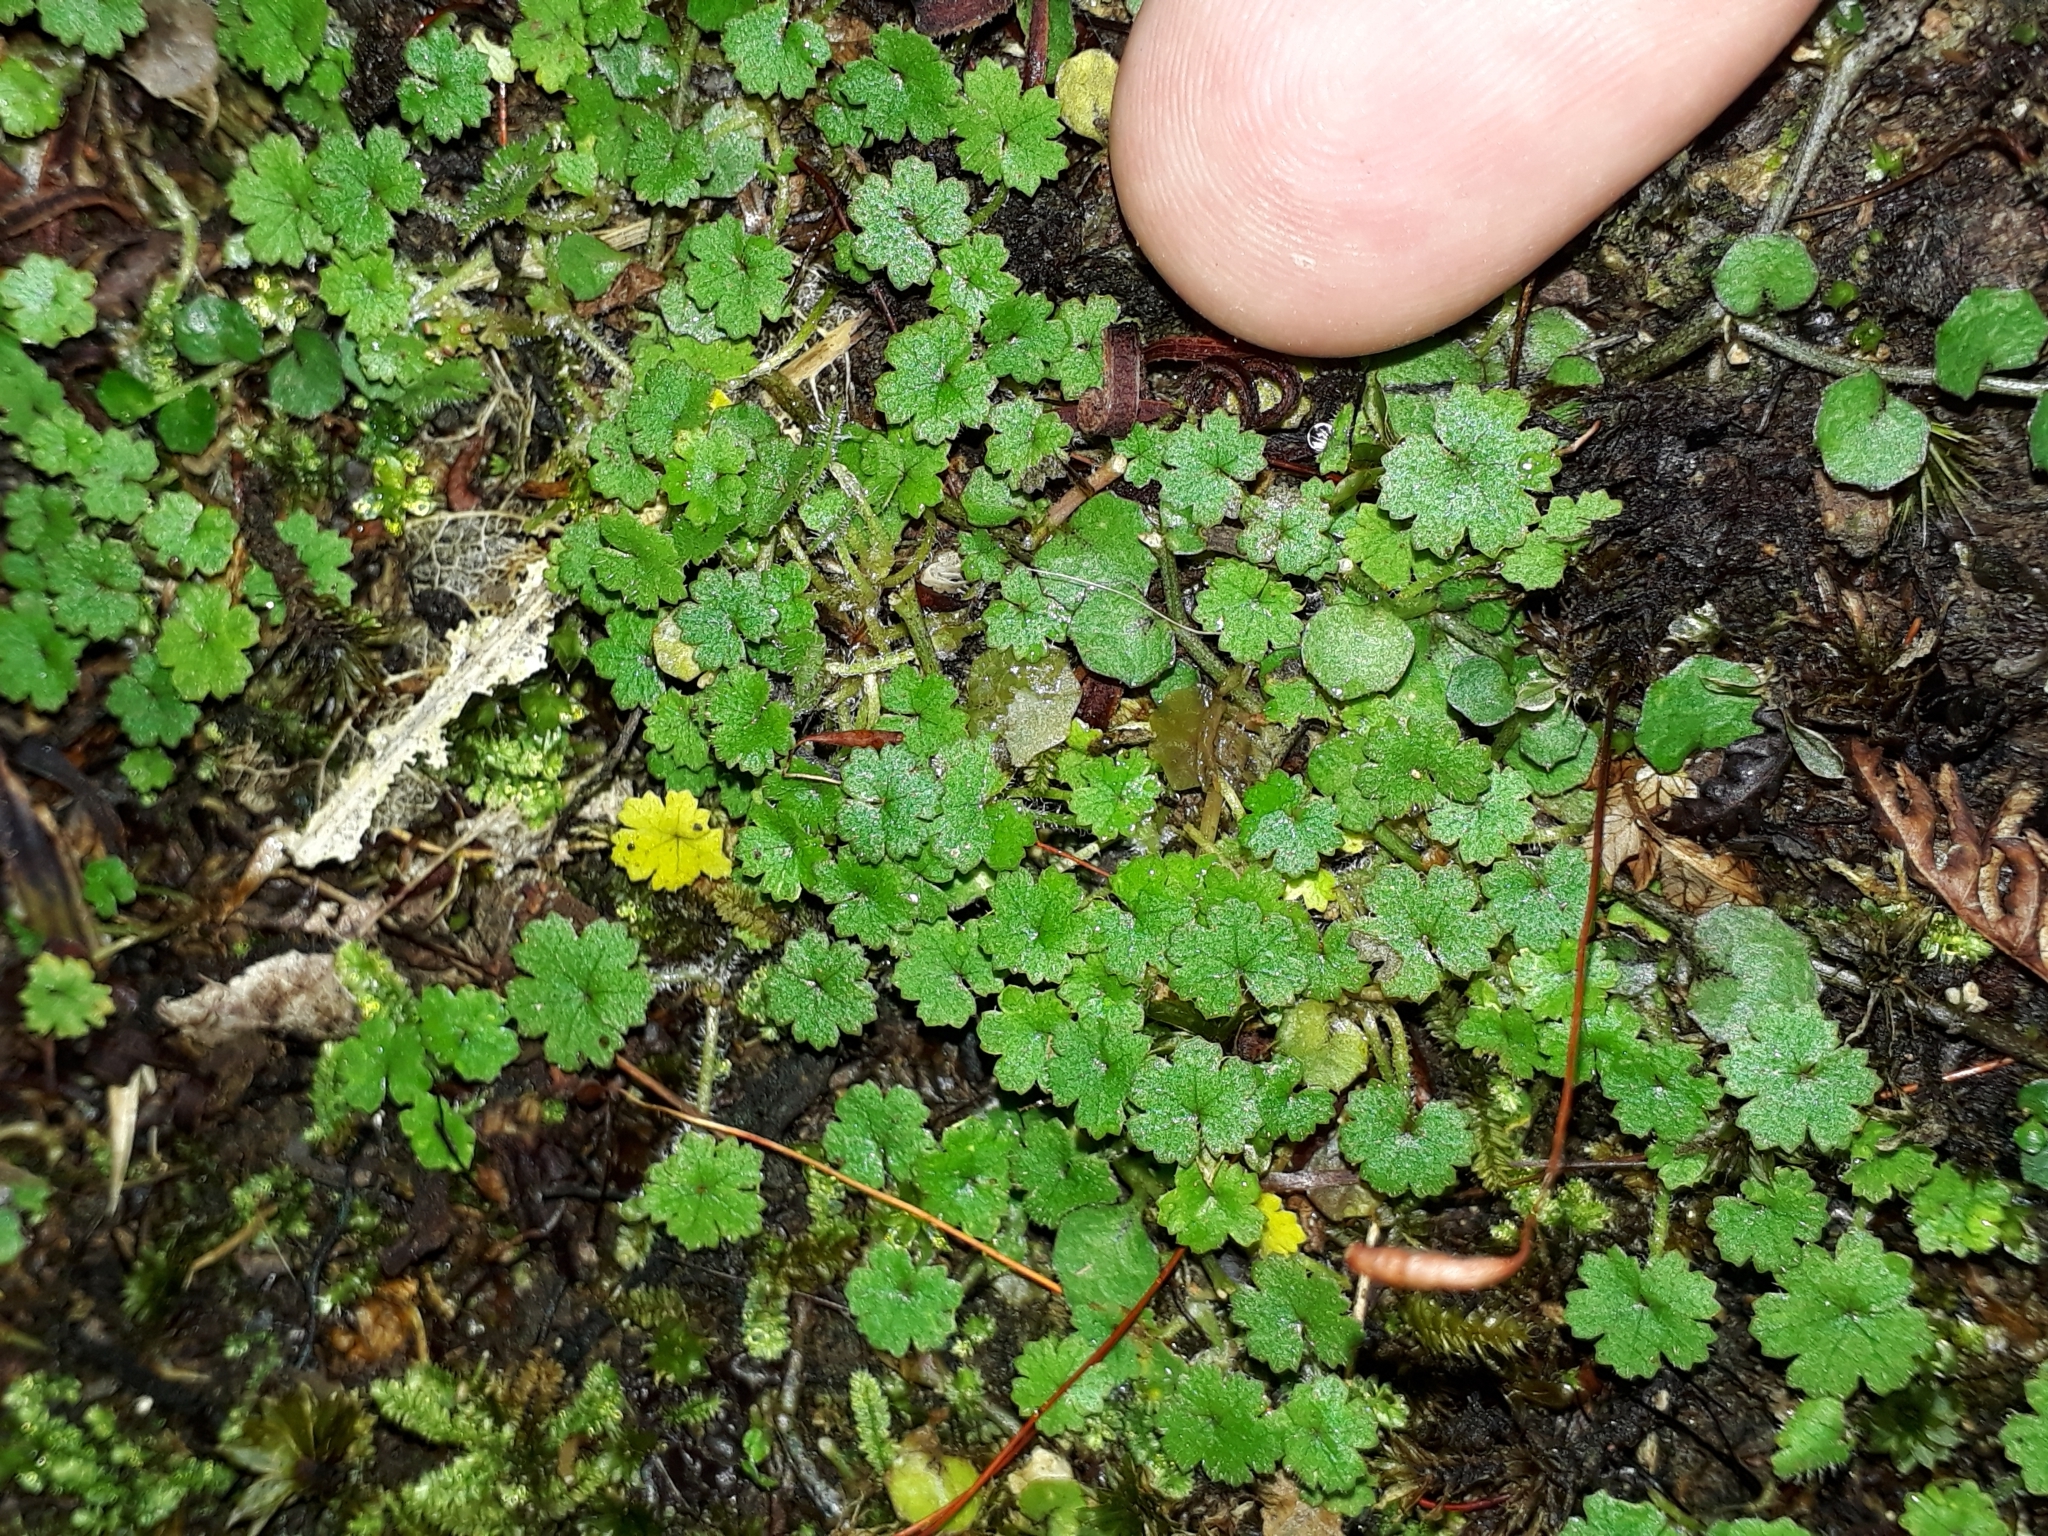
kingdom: Plantae
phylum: Tracheophyta
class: Magnoliopsida
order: Apiales
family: Araliaceae
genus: Hydrocotyle
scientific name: Hydrocotyle moschata
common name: Hairy pennywort
